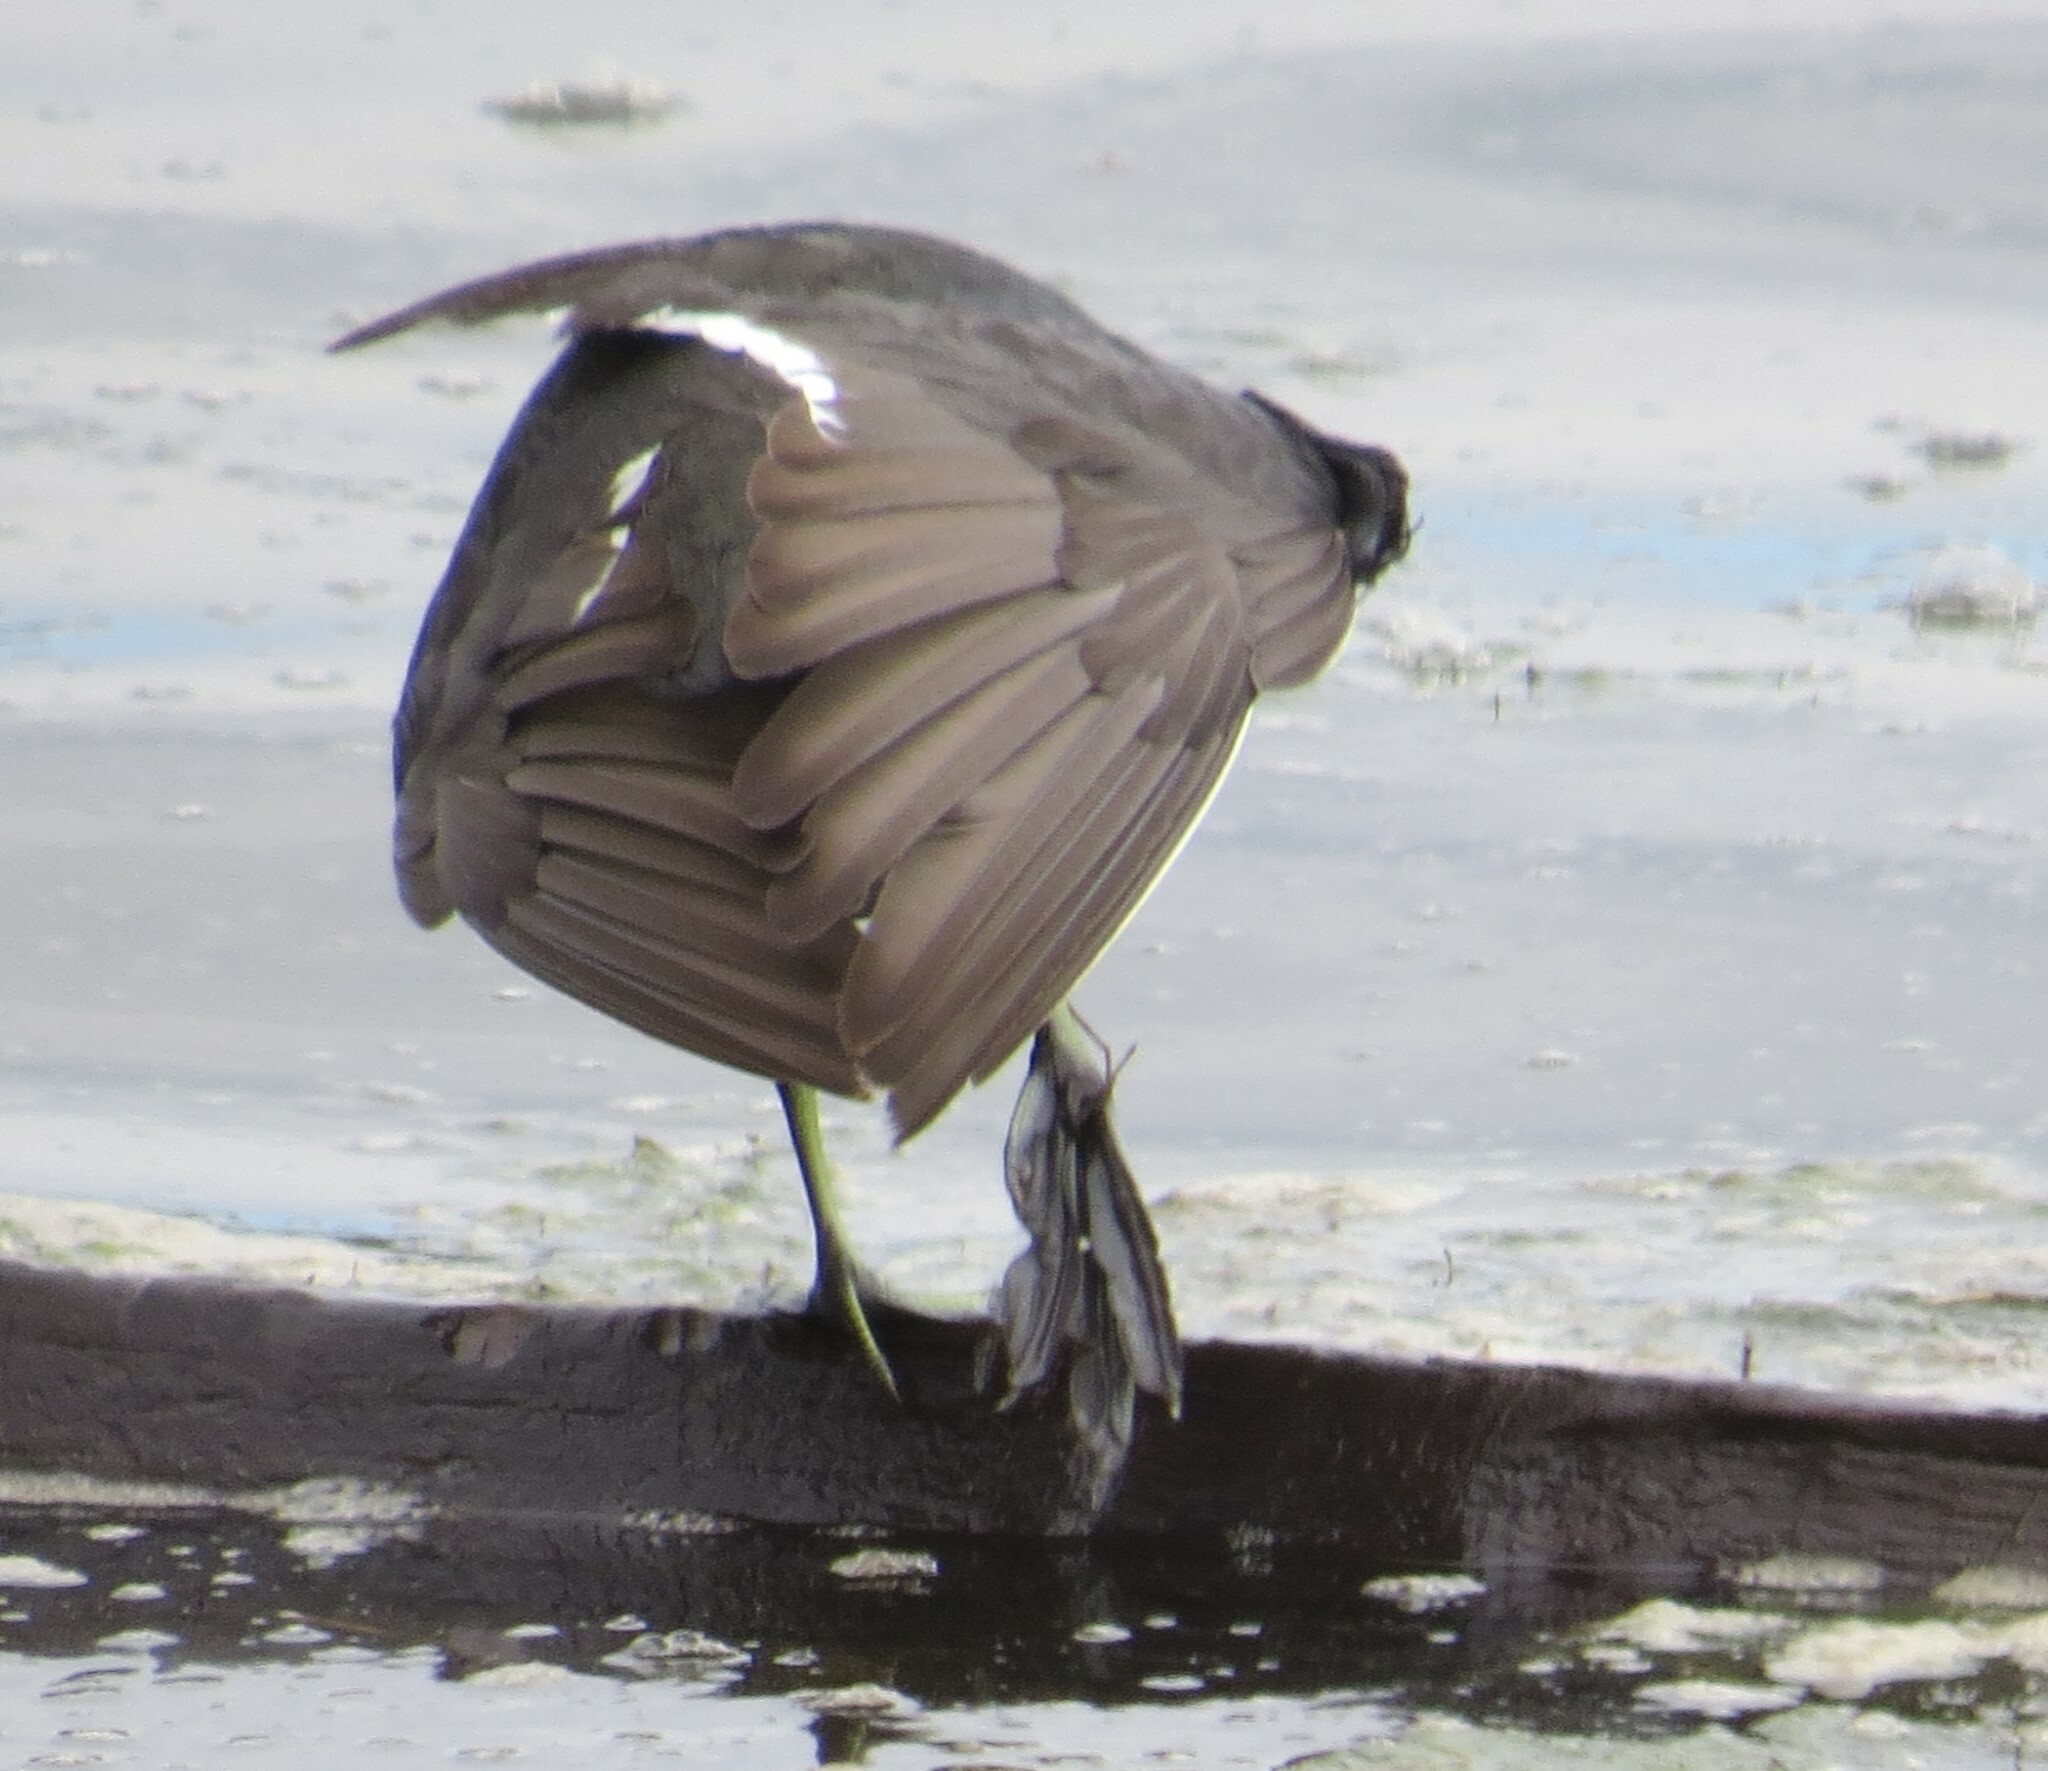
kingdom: Animalia
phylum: Chordata
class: Aves
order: Gruiformes
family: Rallidae
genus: Fulica
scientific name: Fulica americana
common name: American coot
